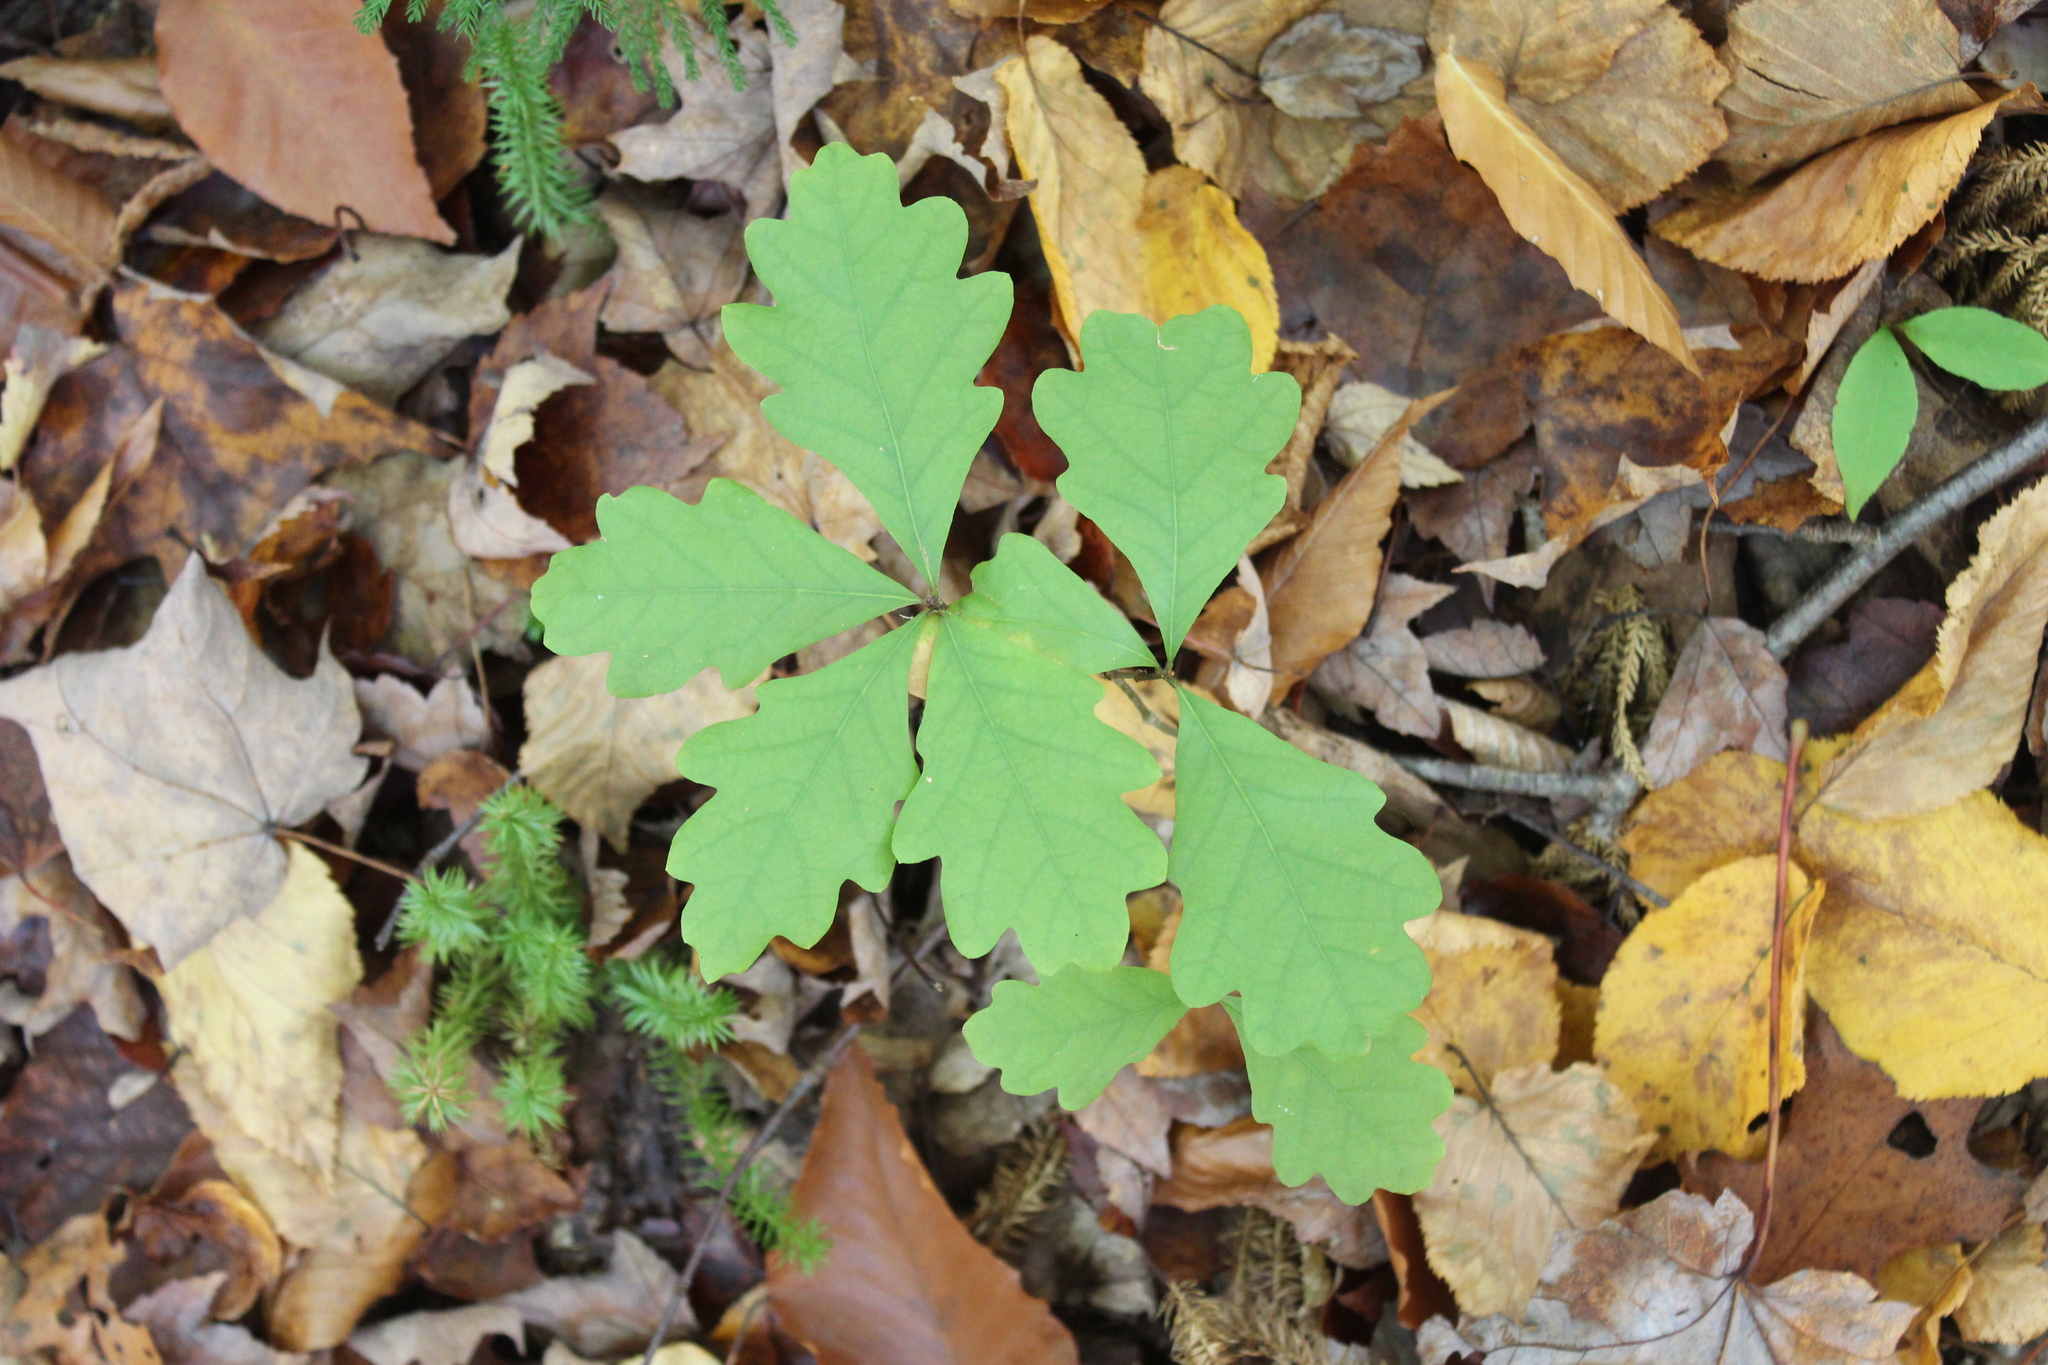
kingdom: Plantae
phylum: Tracheophyta
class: Magnoliopsida
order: Fagales
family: Fagaceae
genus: Quercus
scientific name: Quercus alba
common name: White oak
